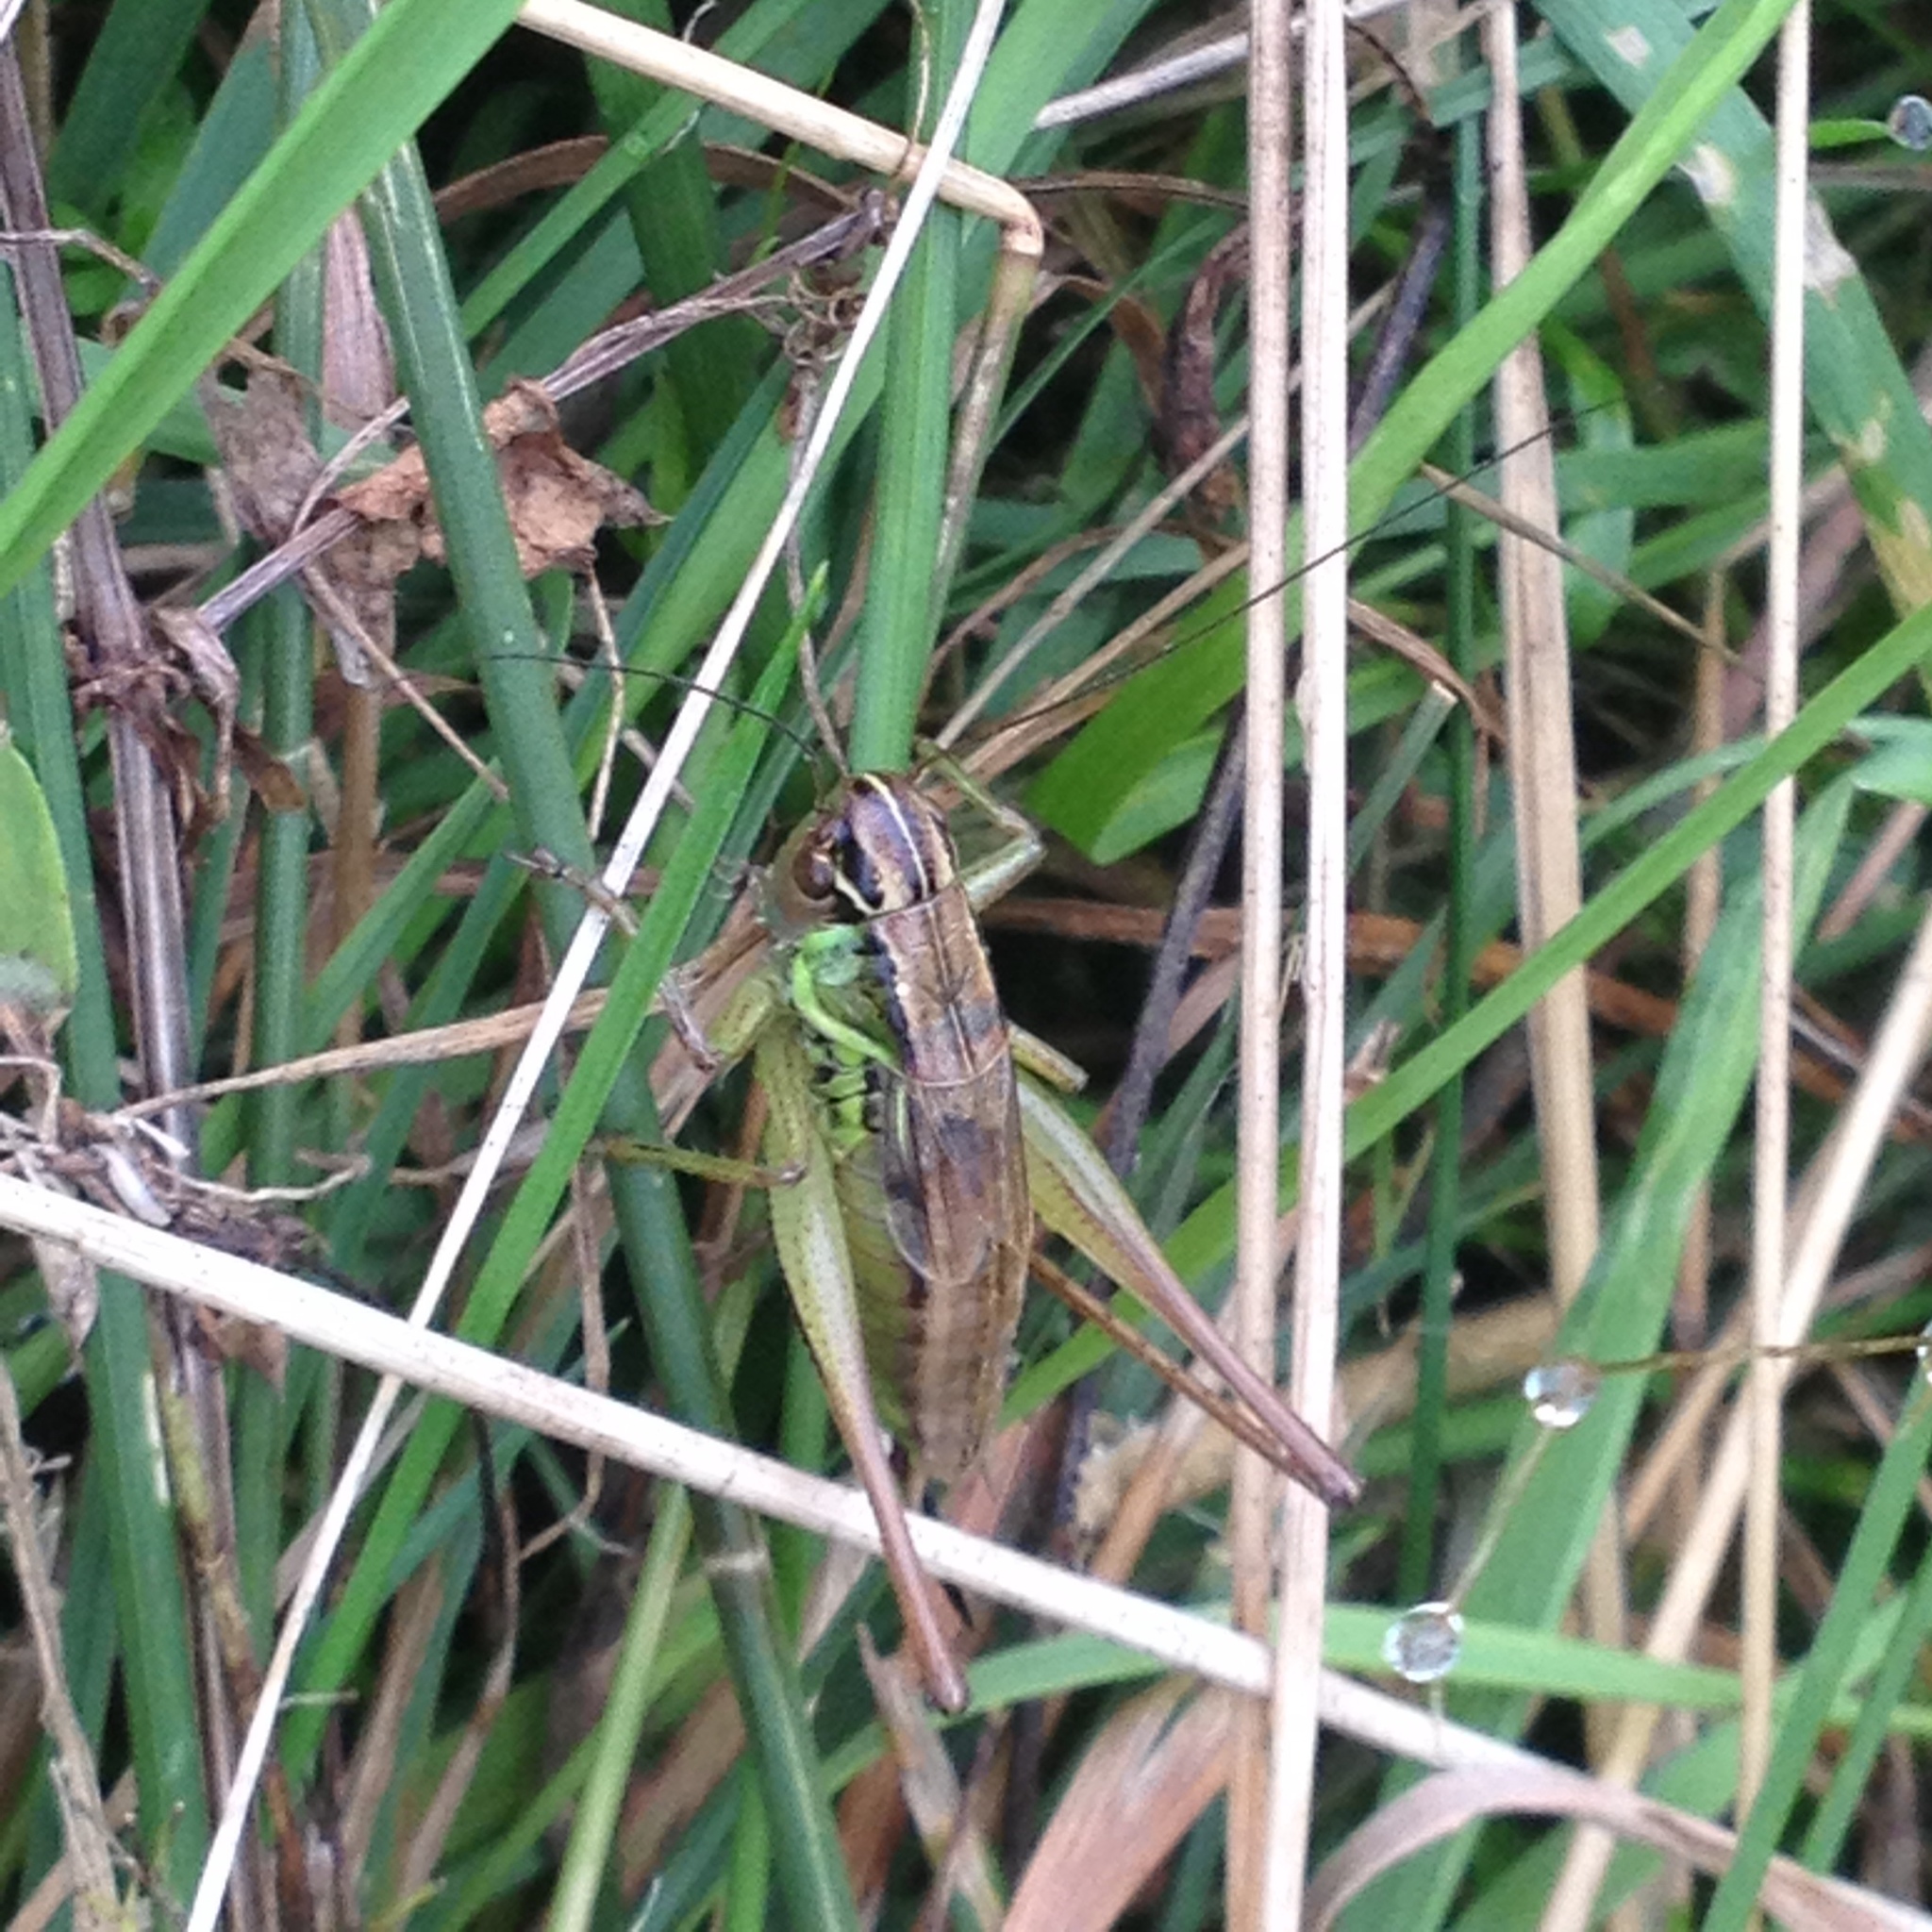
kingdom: Animalia
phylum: Arthropoda
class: Insecta
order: Orthoptera
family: Tettigoniidae
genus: Roeseliana
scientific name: Roeseliana roeselii
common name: Roesel's bush cricket
